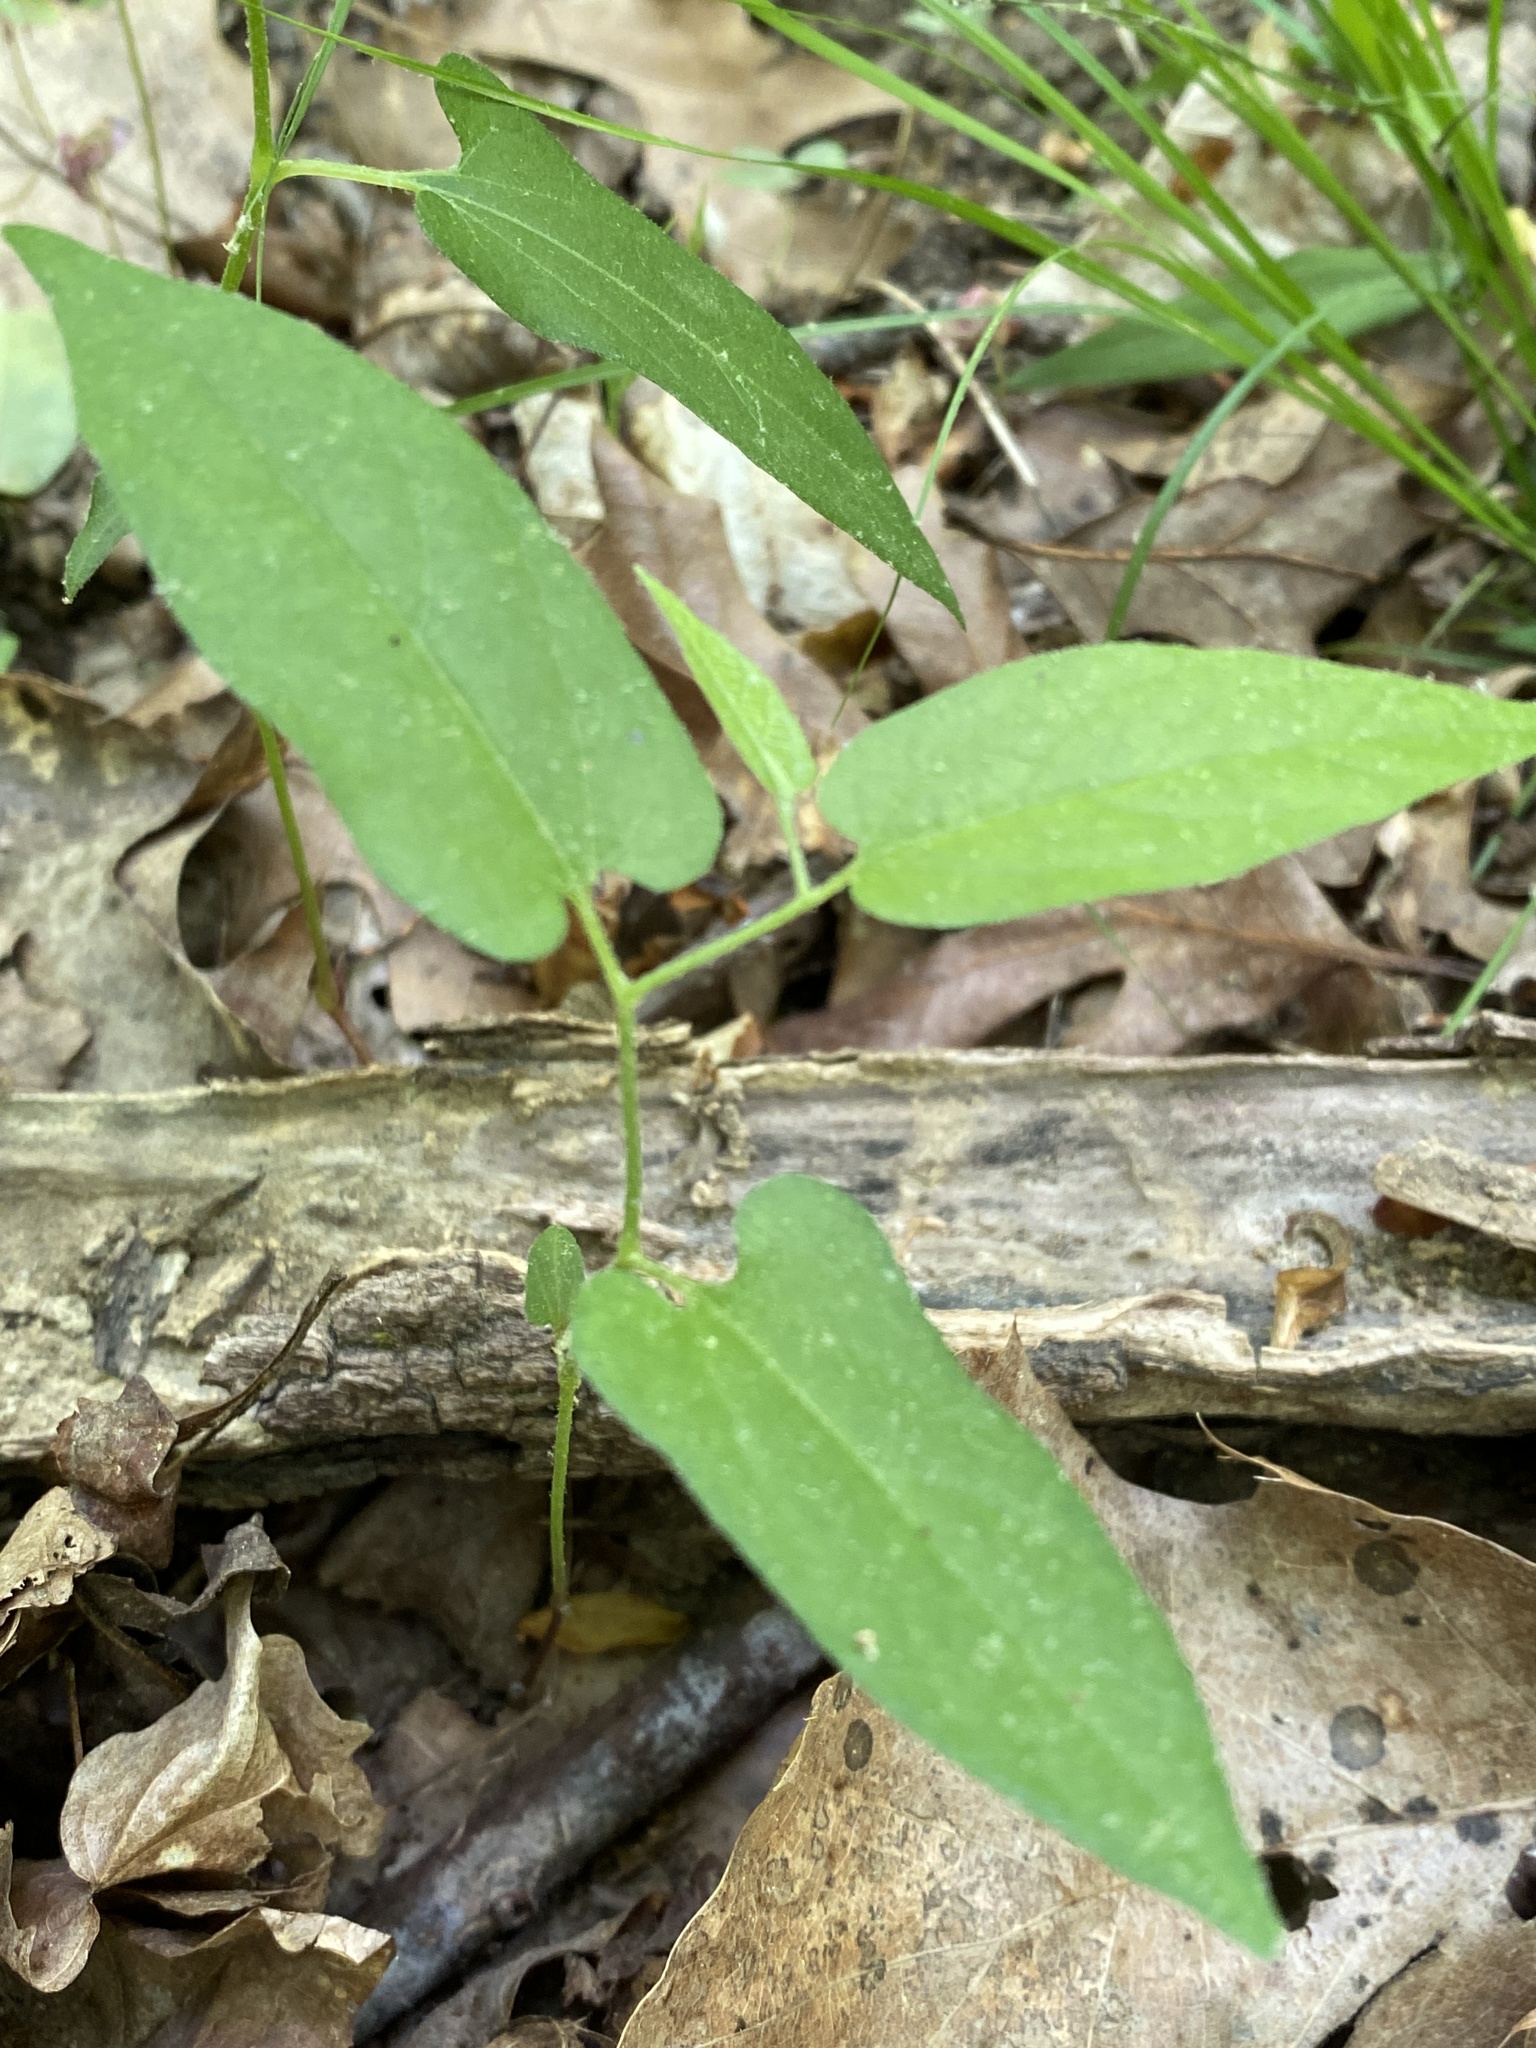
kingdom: Plantae
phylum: Tracheophyta
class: Magnoliopsida
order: Piperales
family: Aristolochiaceae
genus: Endodeca
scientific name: Endodeca serpentaria
